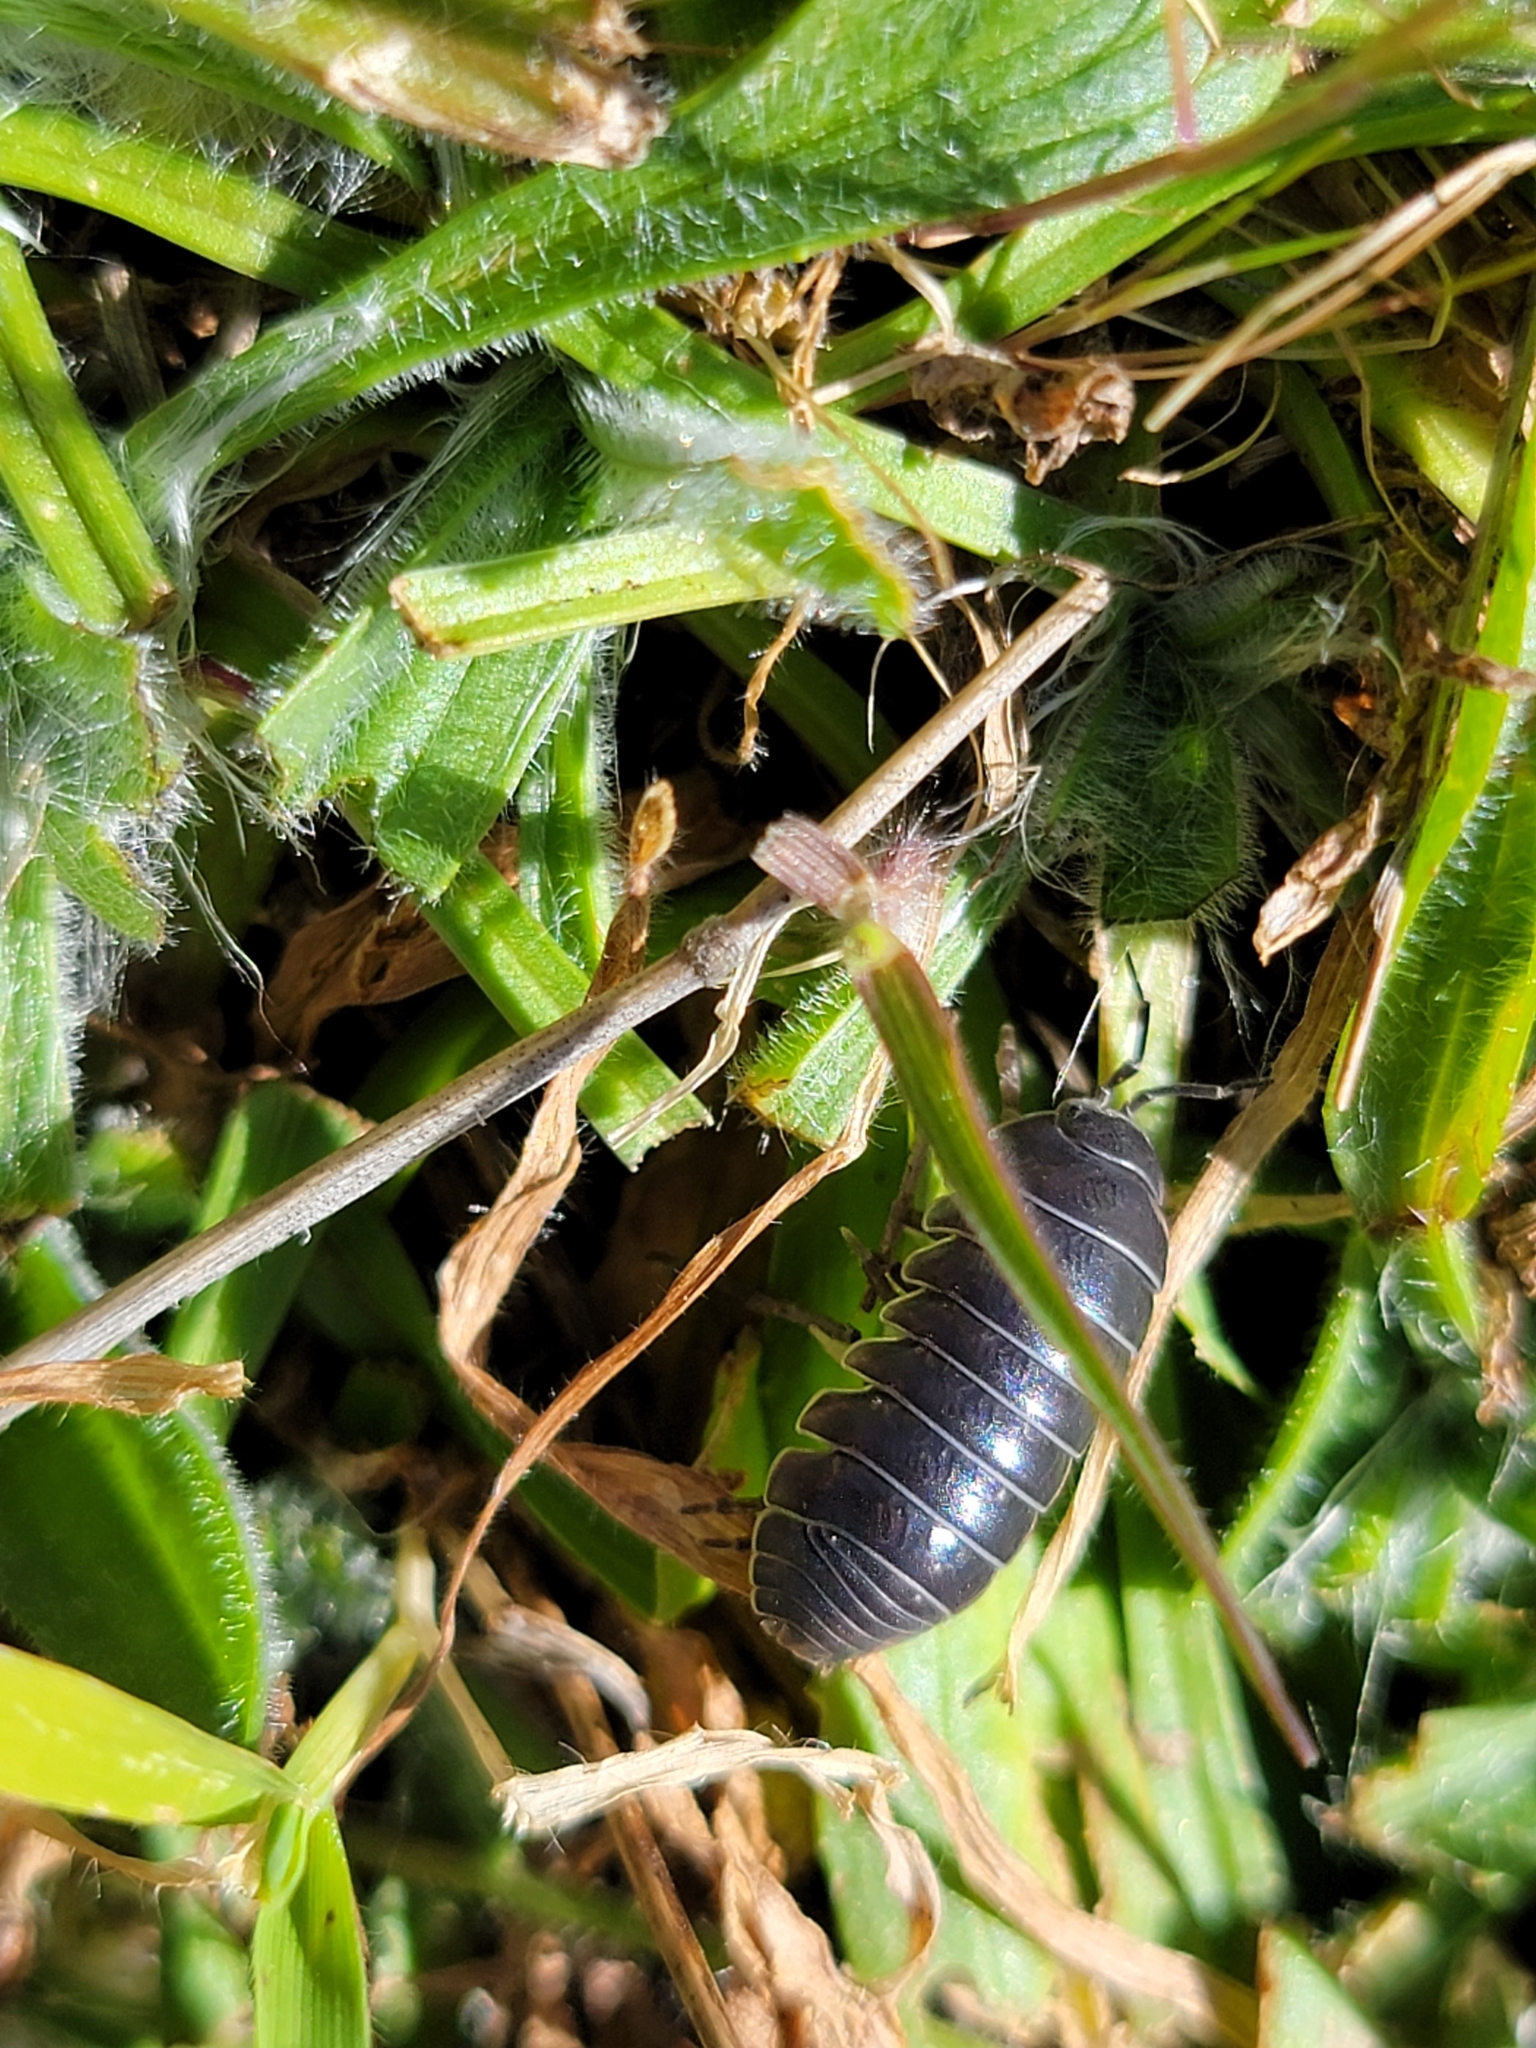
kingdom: Animalia
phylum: Arthropoda
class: Malacostraca
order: Isopoda
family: Armadillidiidae
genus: Armadillidium
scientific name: Armadillidium vulgare
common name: Common pill woodlouse
